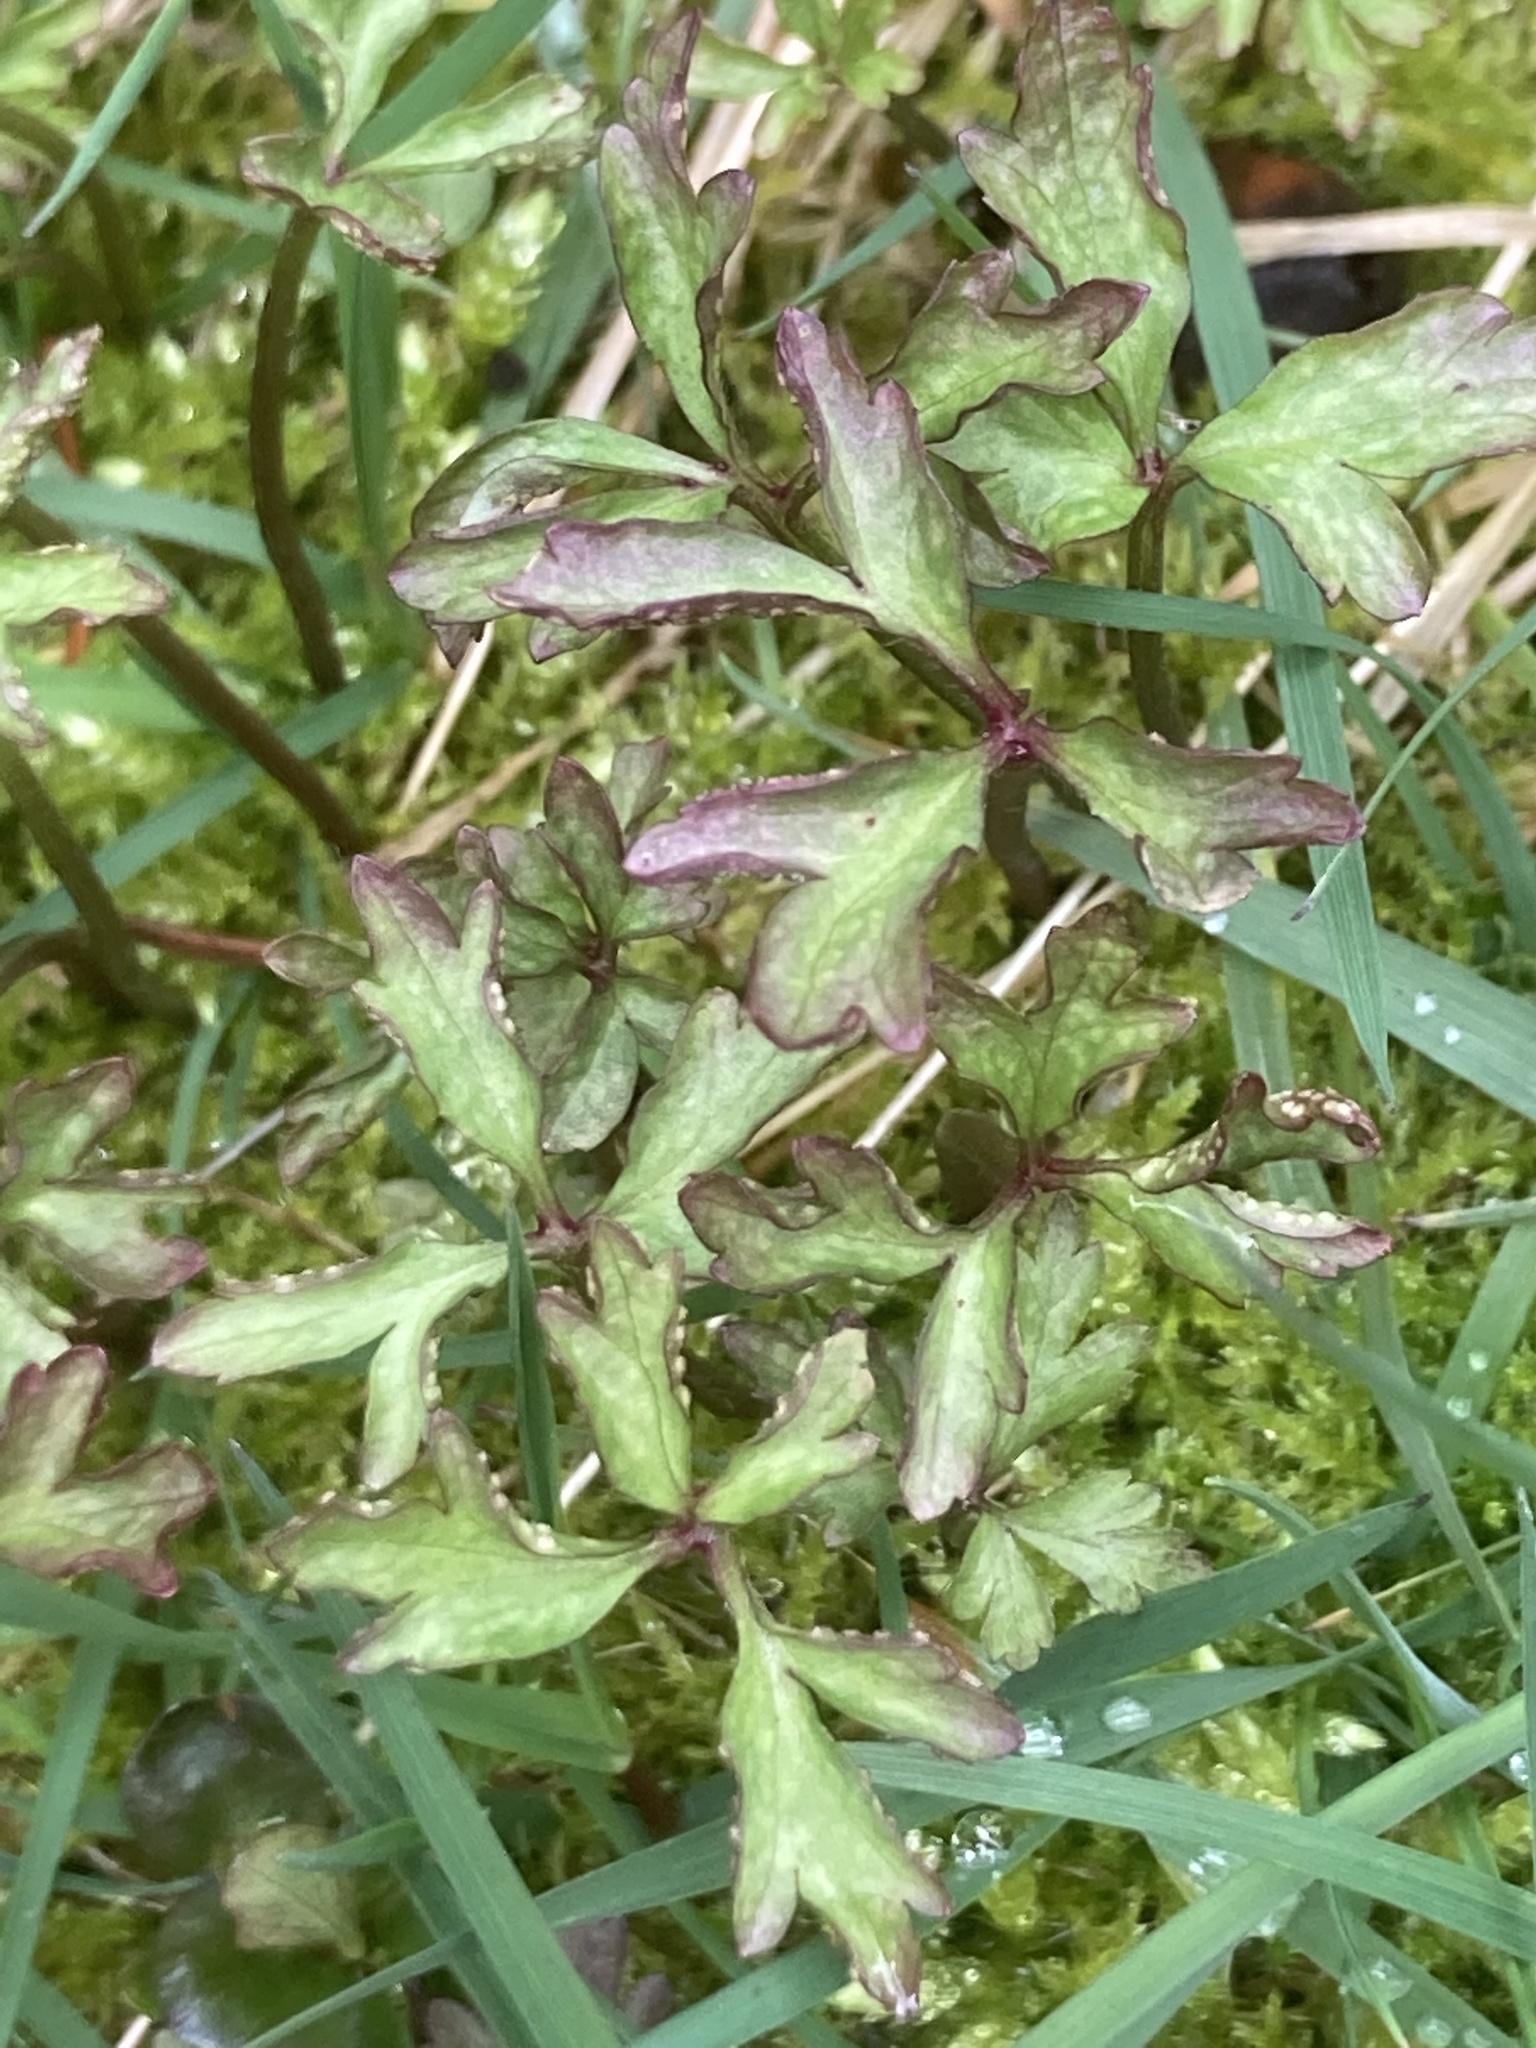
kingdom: Plantae
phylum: Tracheophyta
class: Magnoliopsida
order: Ranunculales
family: Ranunculaceae
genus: Anemone
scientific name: Anemone nemorosa
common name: Wood anemone
